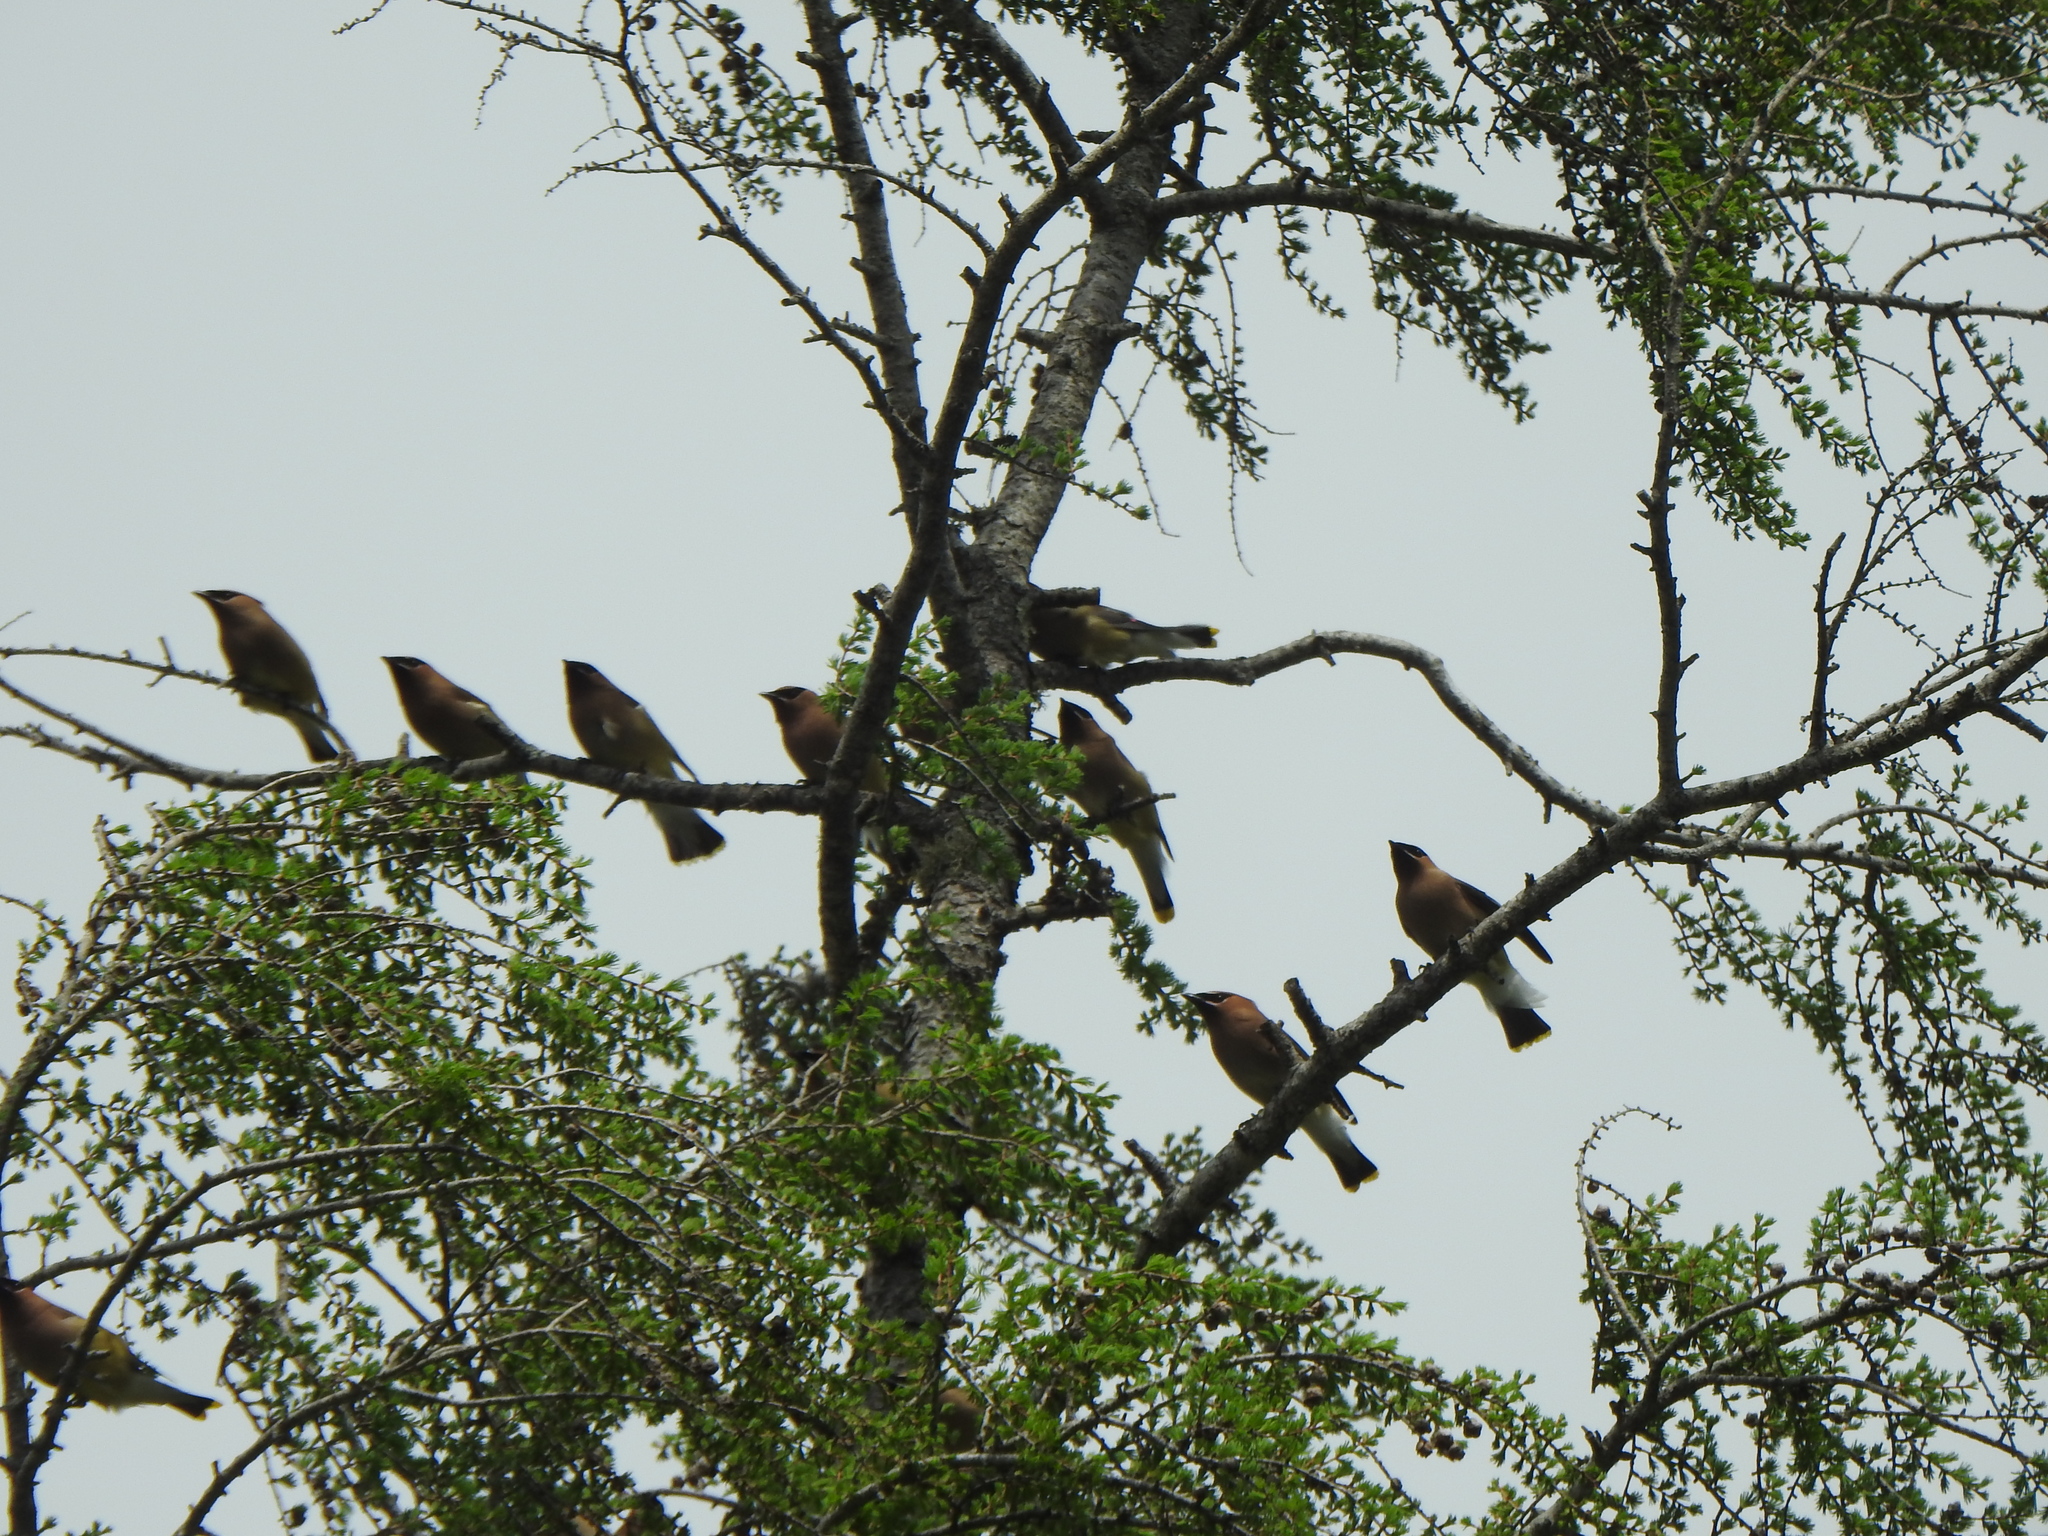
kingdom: Animalia
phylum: Chordata
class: Aves
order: Passeriformes
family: Bombycillidae
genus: Bombycilla
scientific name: Bombycilla cedrorum
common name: Cedar waxwing
